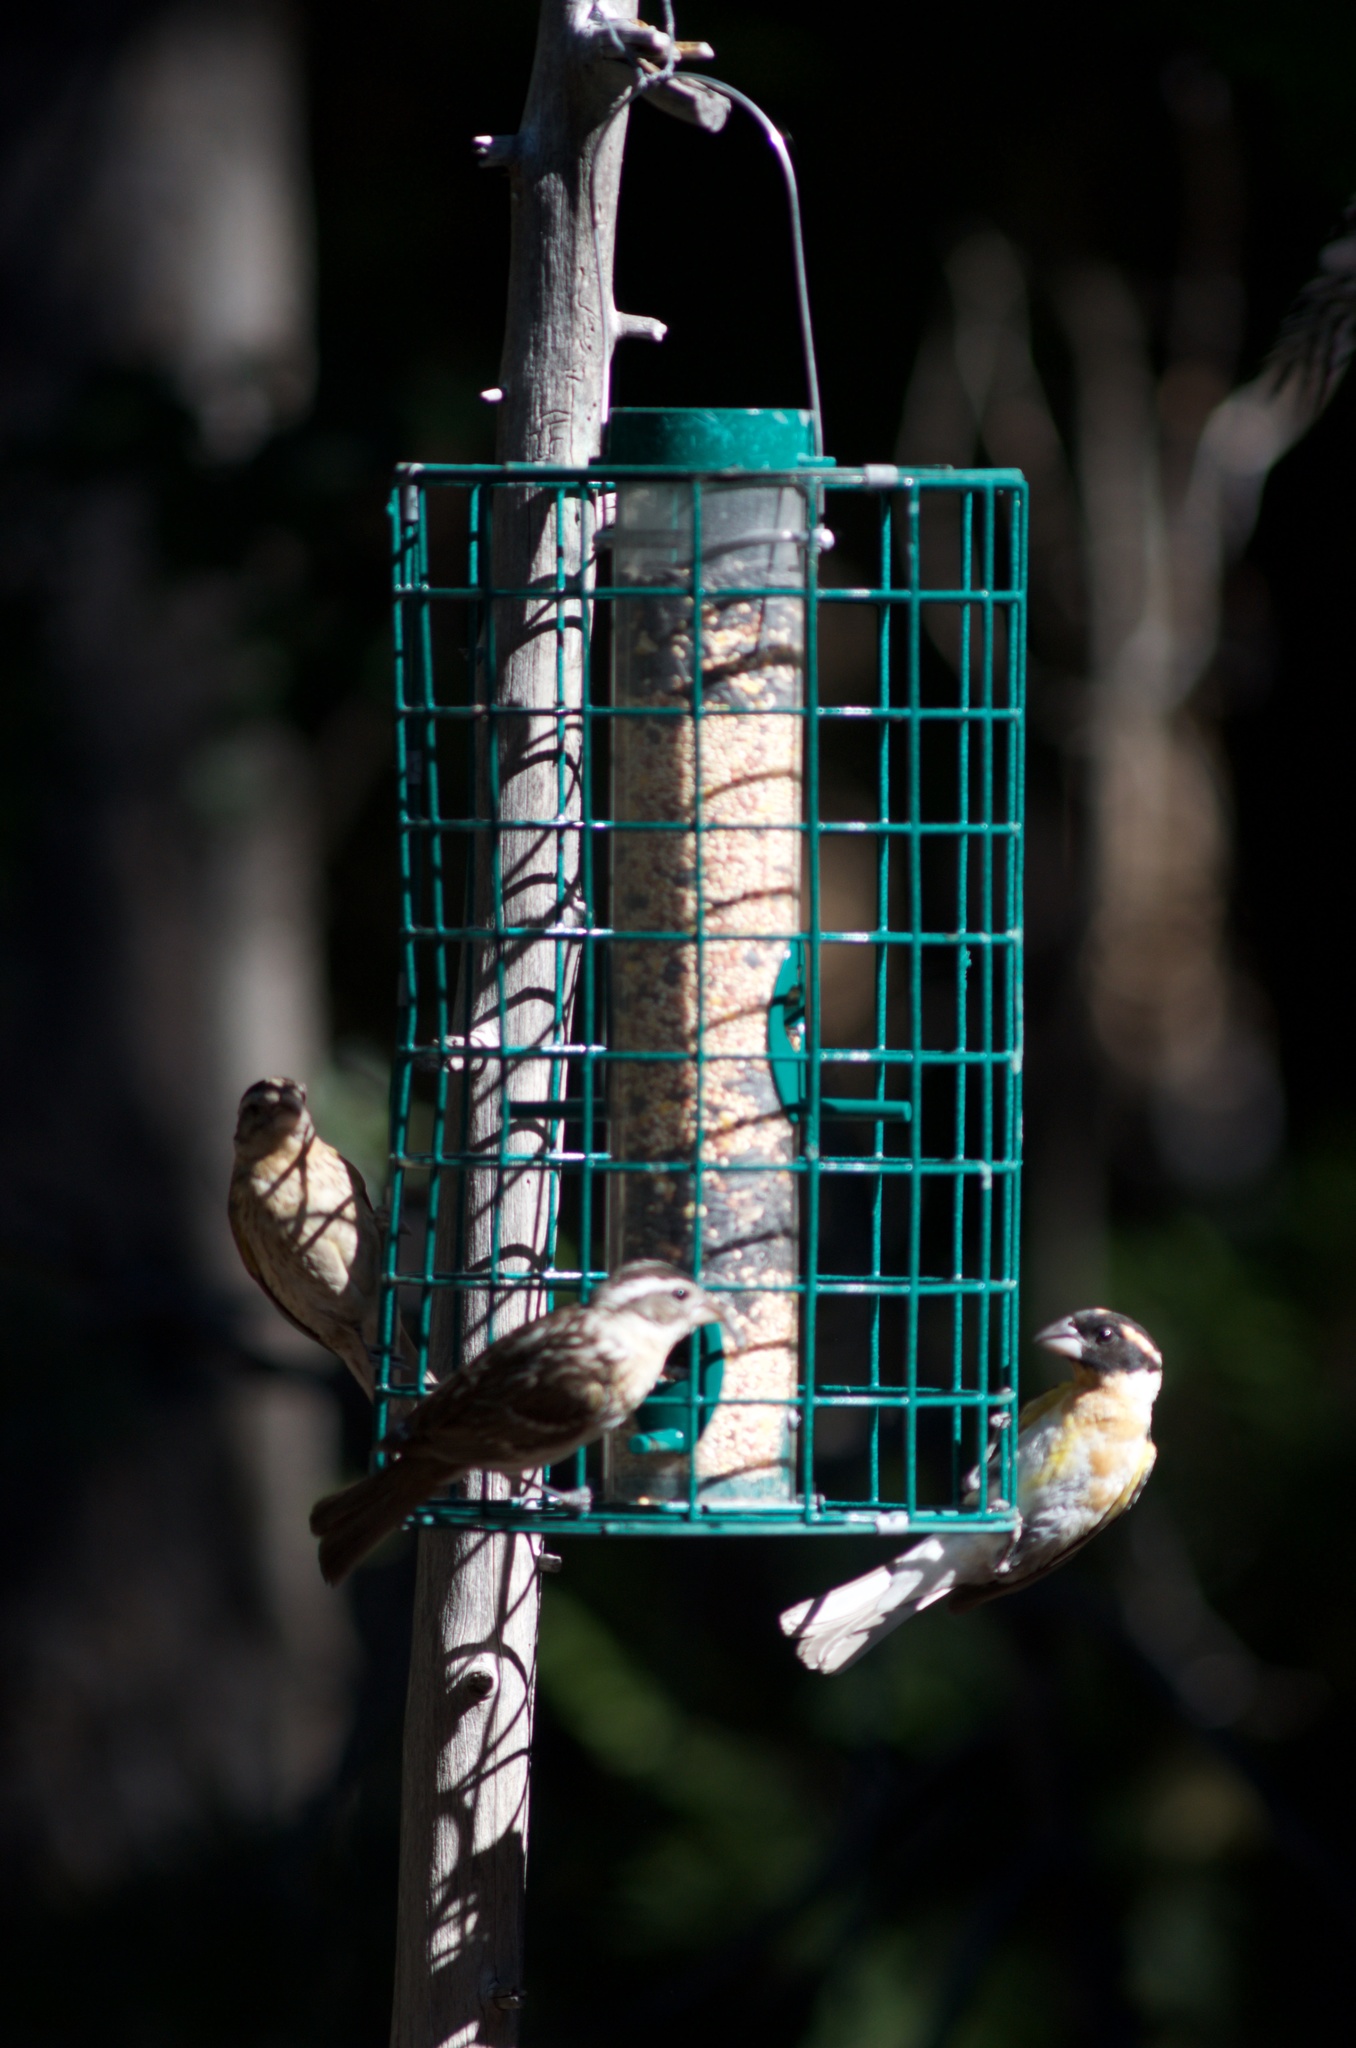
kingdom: Animalia
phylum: Chordata
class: Aves
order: Passeriformes
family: Cardinalidae
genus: Pheucticus
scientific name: Pheucticus melanocephalus
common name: Black-headed grosbeak
